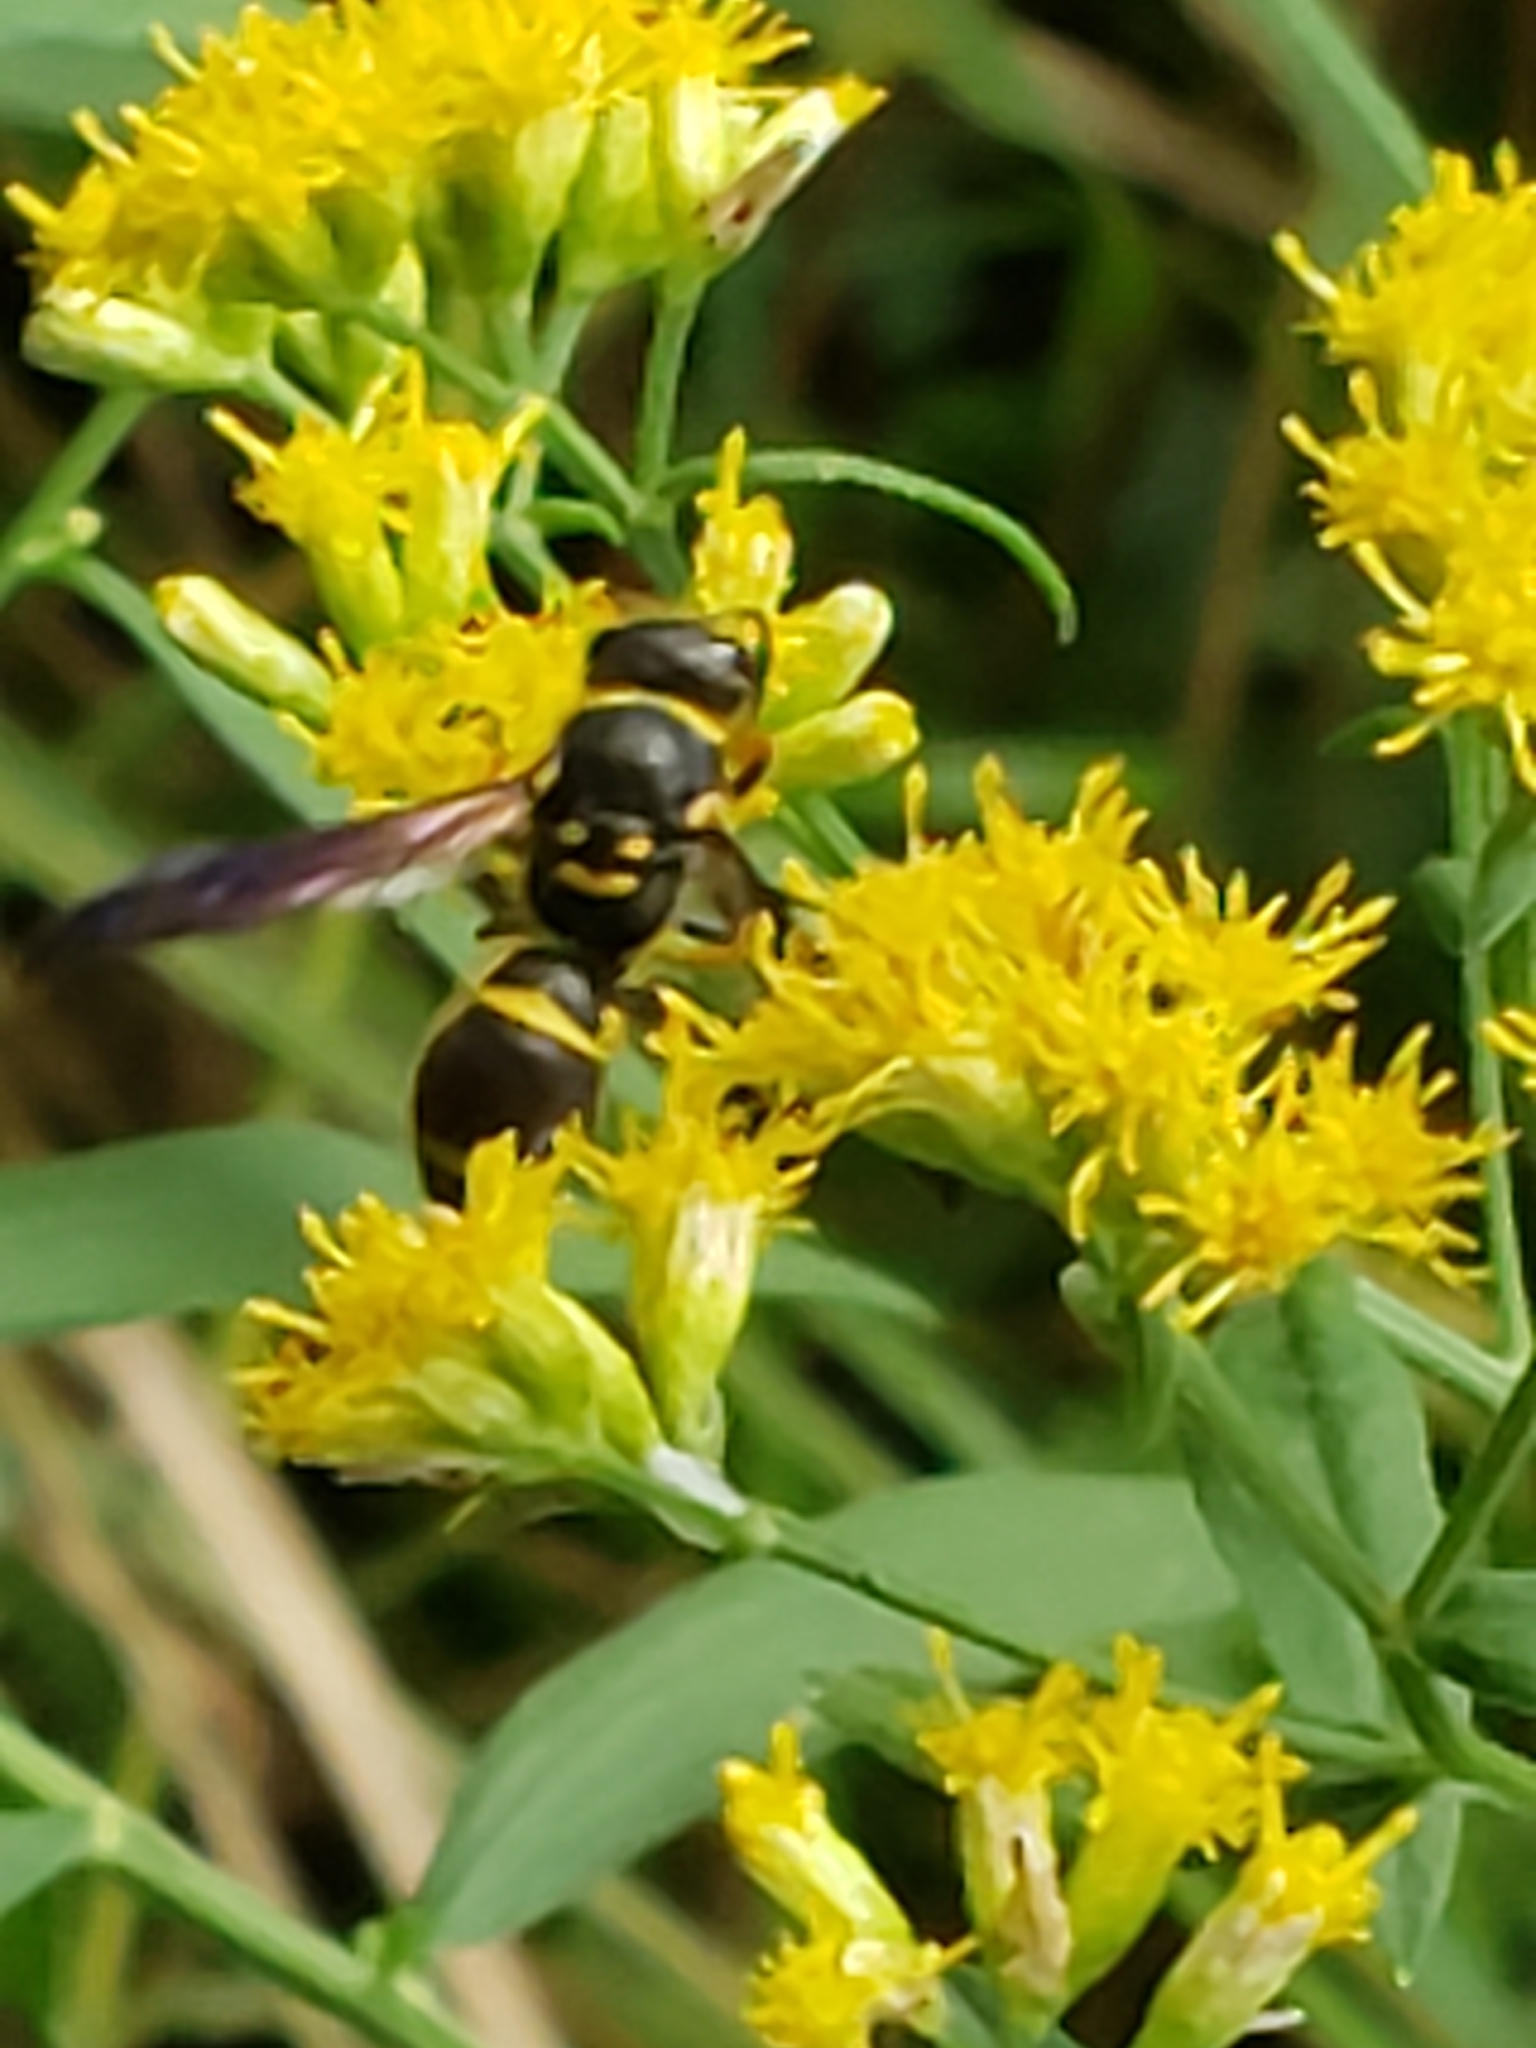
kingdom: Animalia
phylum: Arthropoda
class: Insecta
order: Hymenoptera
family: Vespidae
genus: Ancistrocerus
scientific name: Ancistrocerus campestris
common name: Smiling mason wasp
